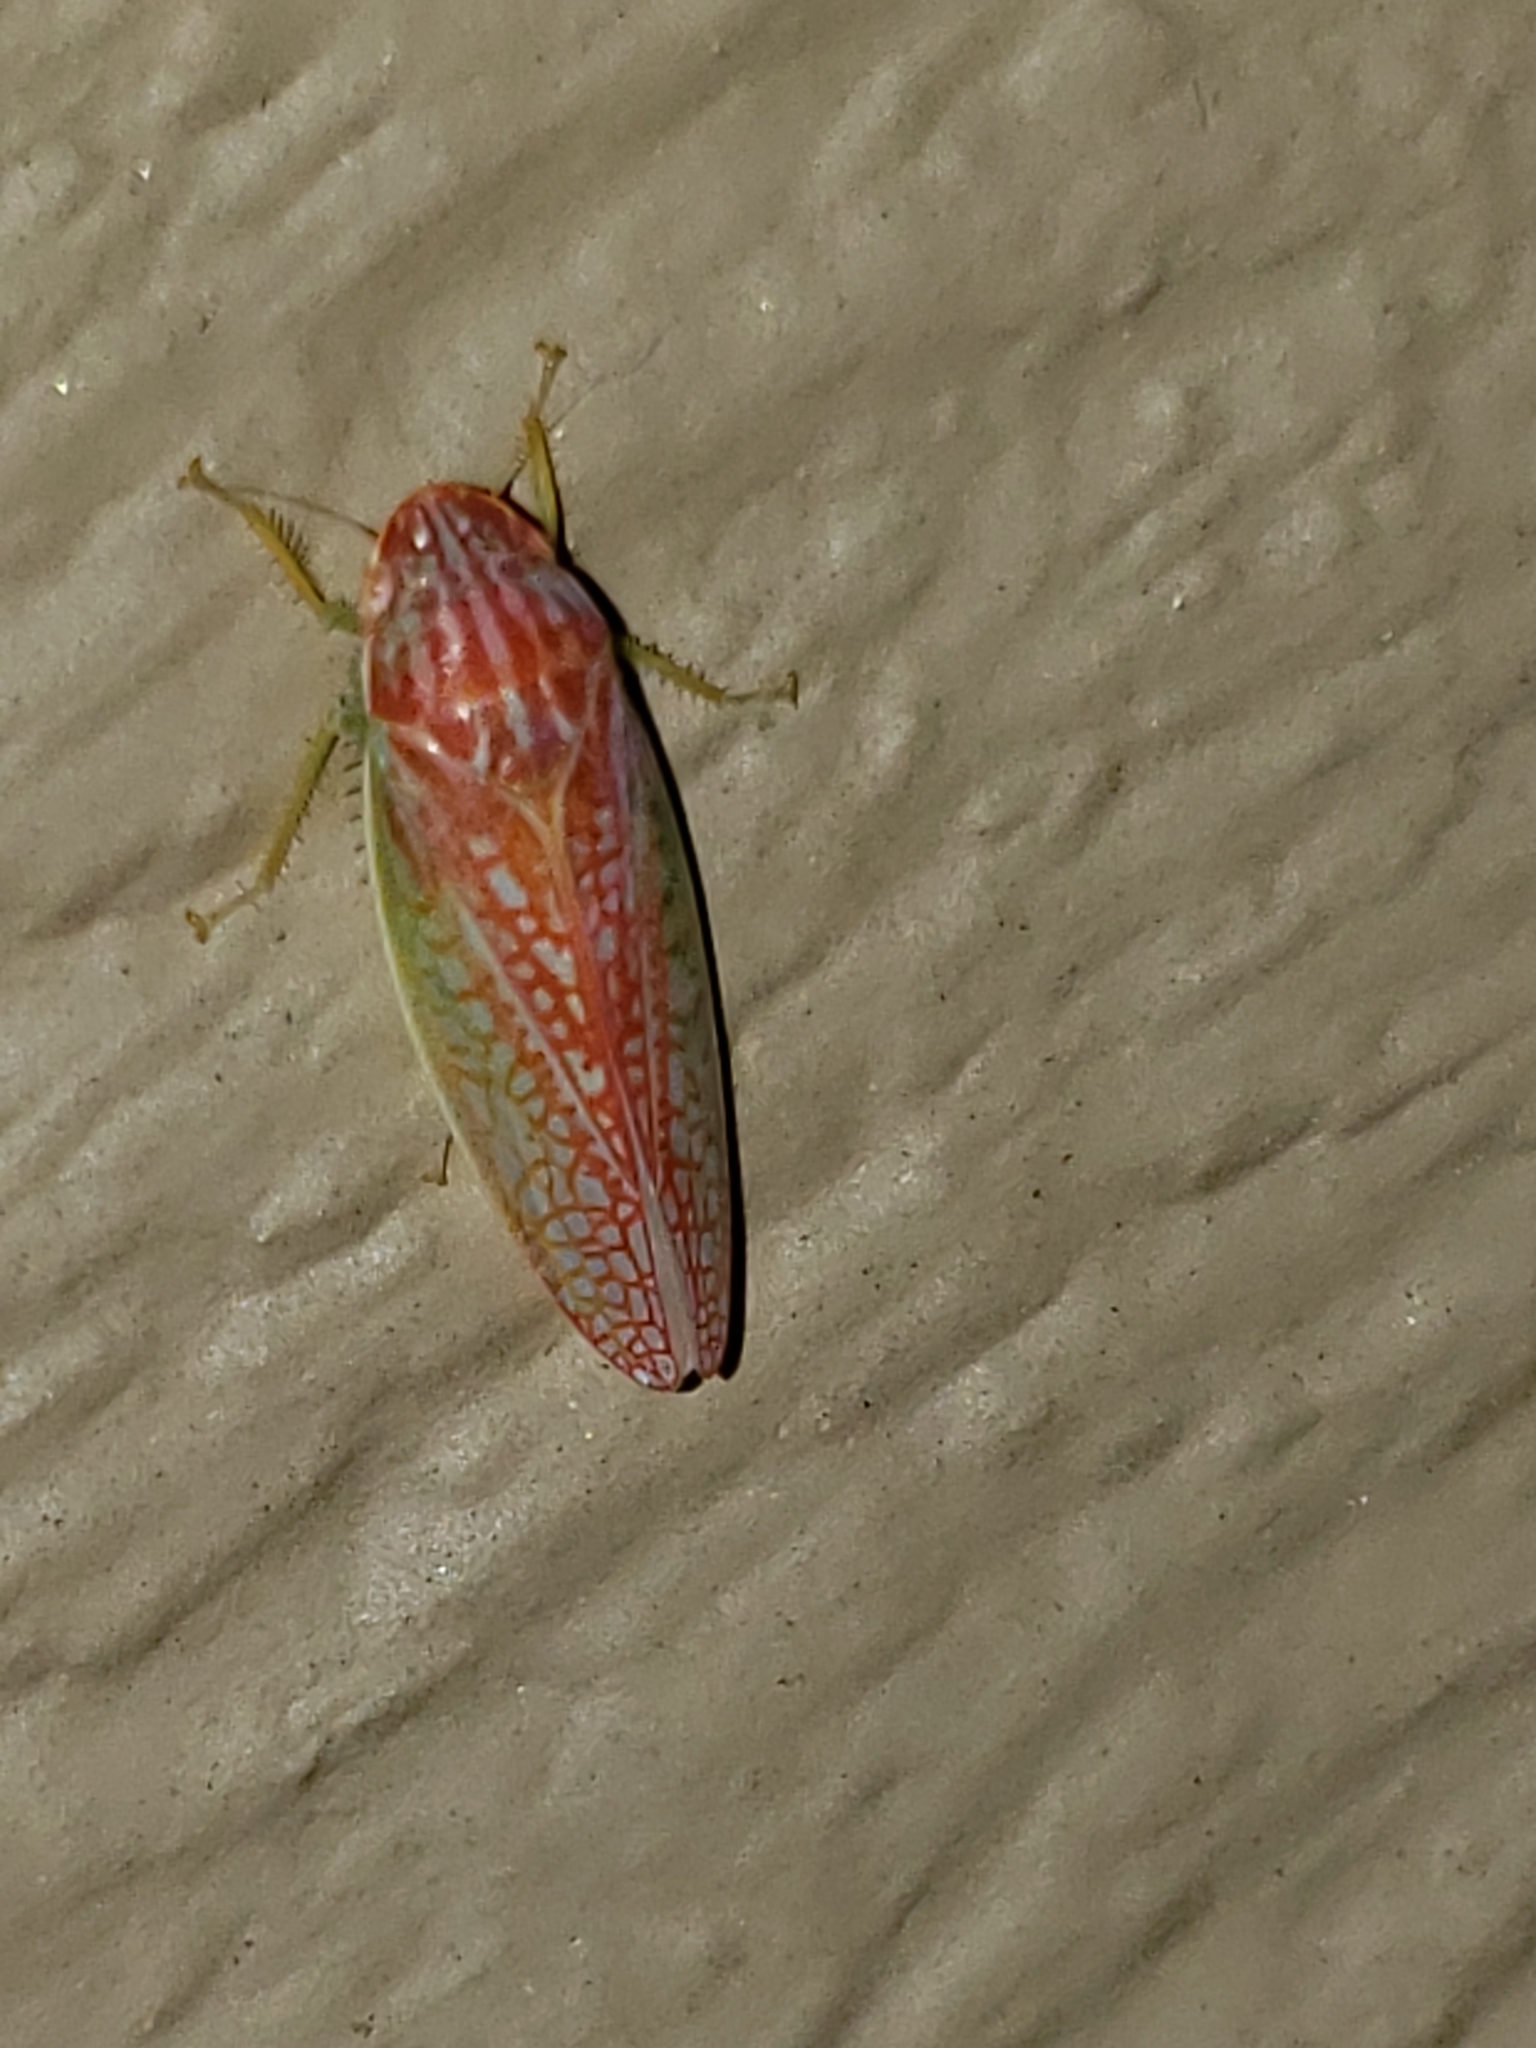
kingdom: Animalia
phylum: Arthropoda
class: Insecta
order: Hemiptera
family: Cicadellidae
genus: Gyponana
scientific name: Gyponana octolineata
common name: Eight-lined leafhopper
